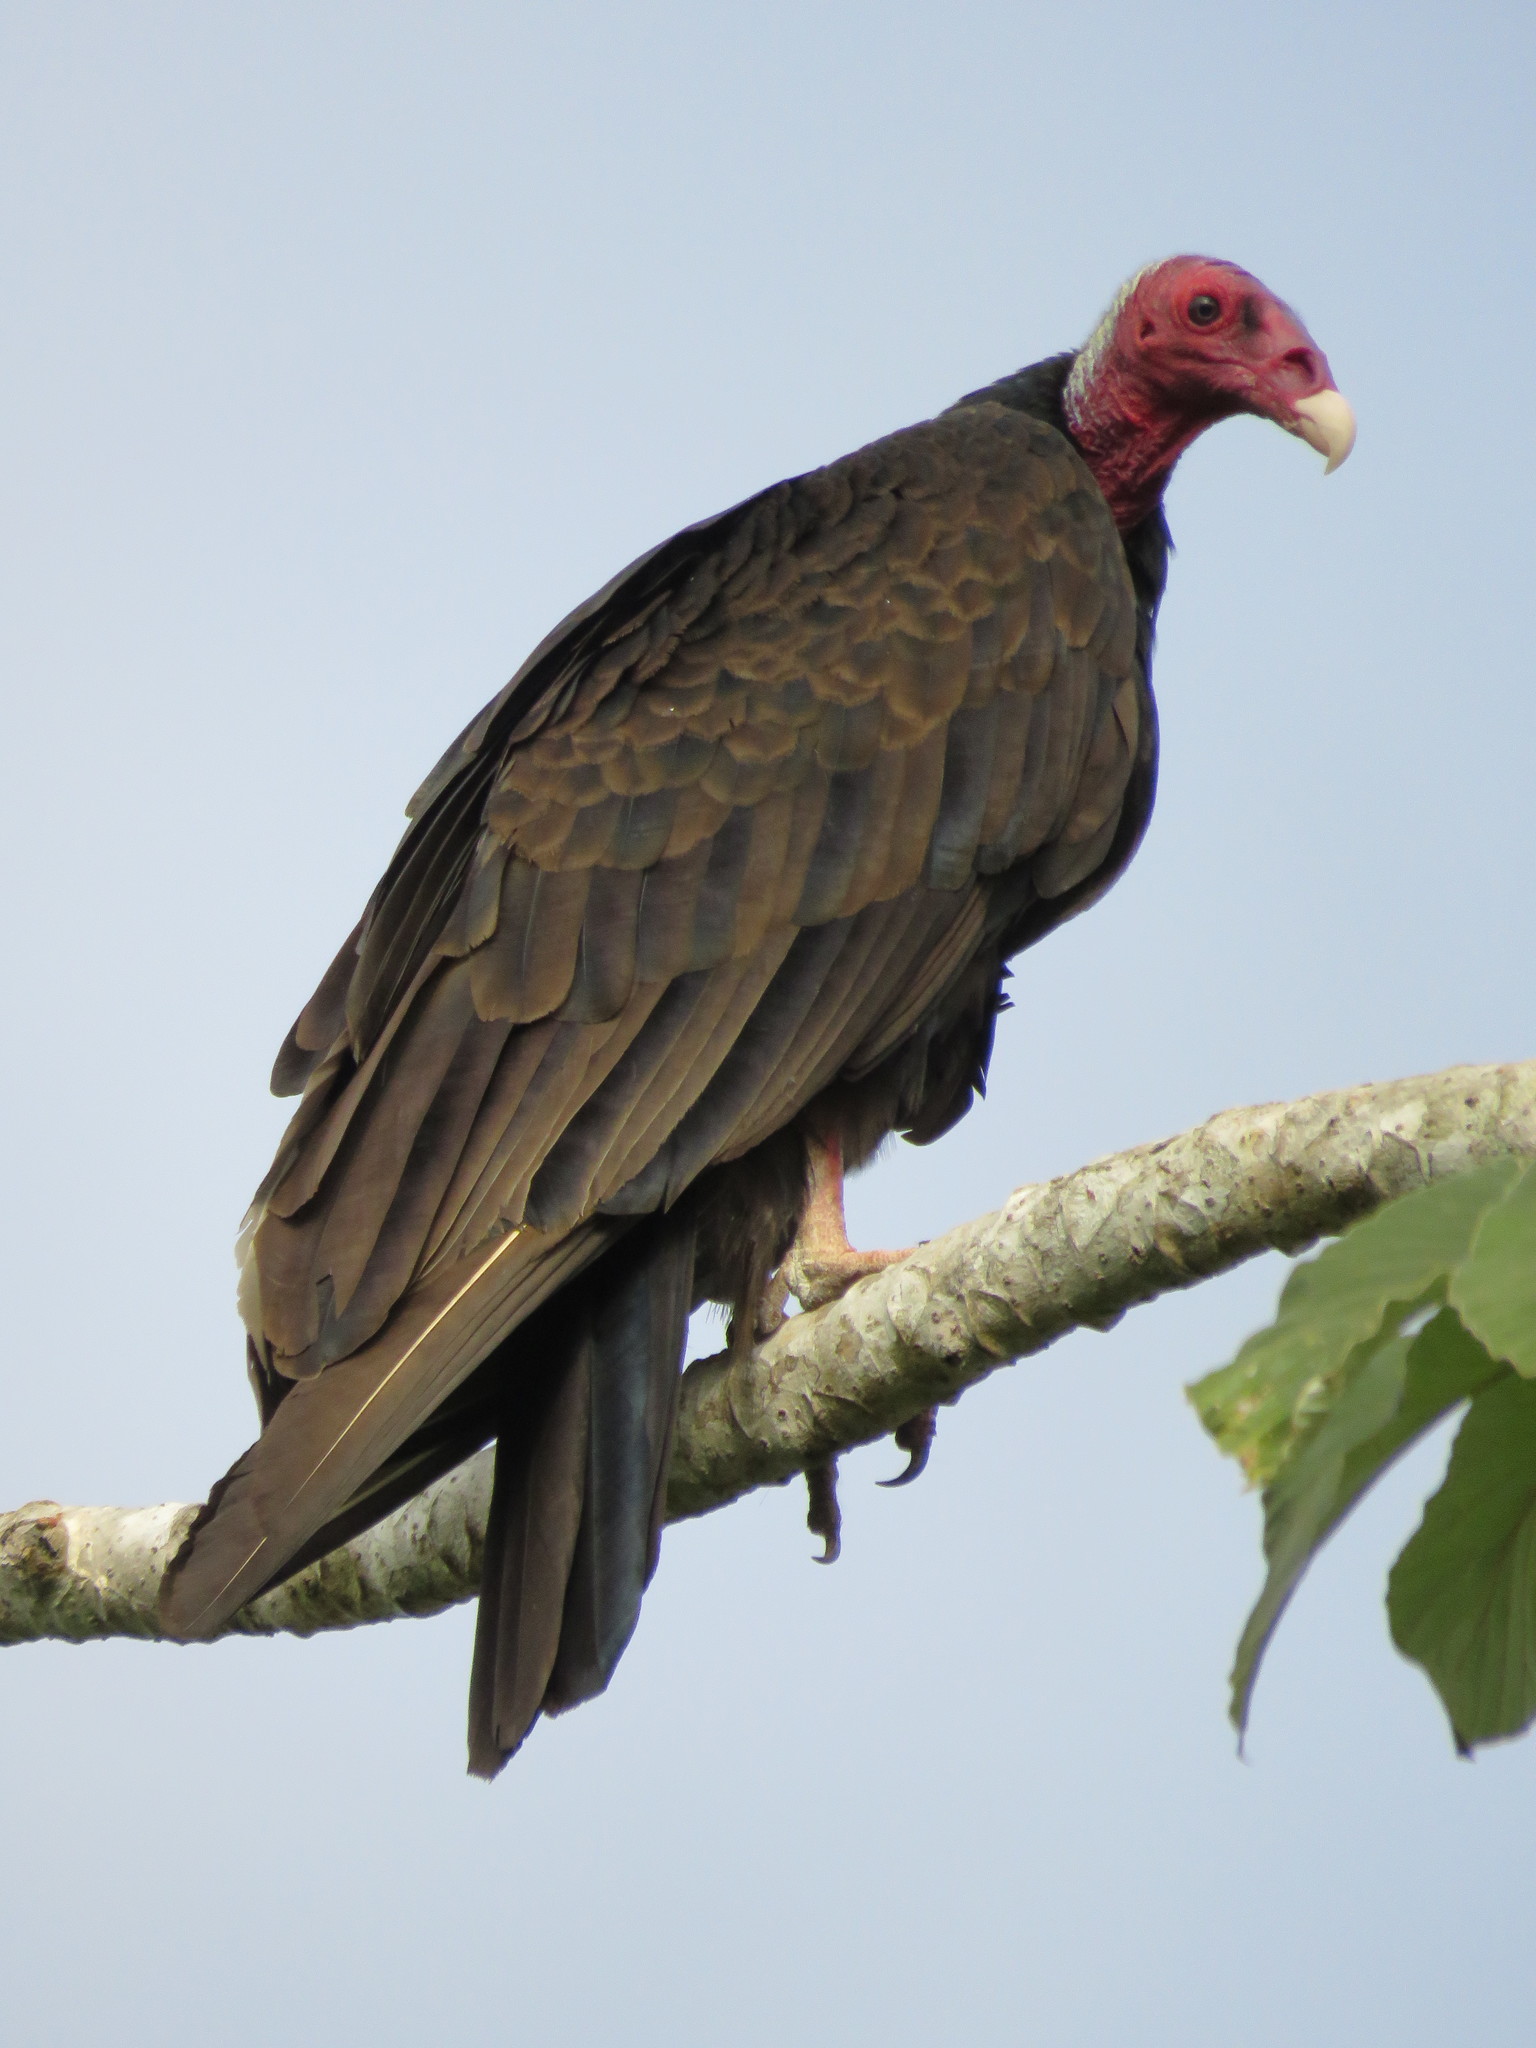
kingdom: Animalia
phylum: Chordata
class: Aves
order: Accipitriformes
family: Cathartidae
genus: Cathartes
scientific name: Cathartes aura
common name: Turkey vulture
